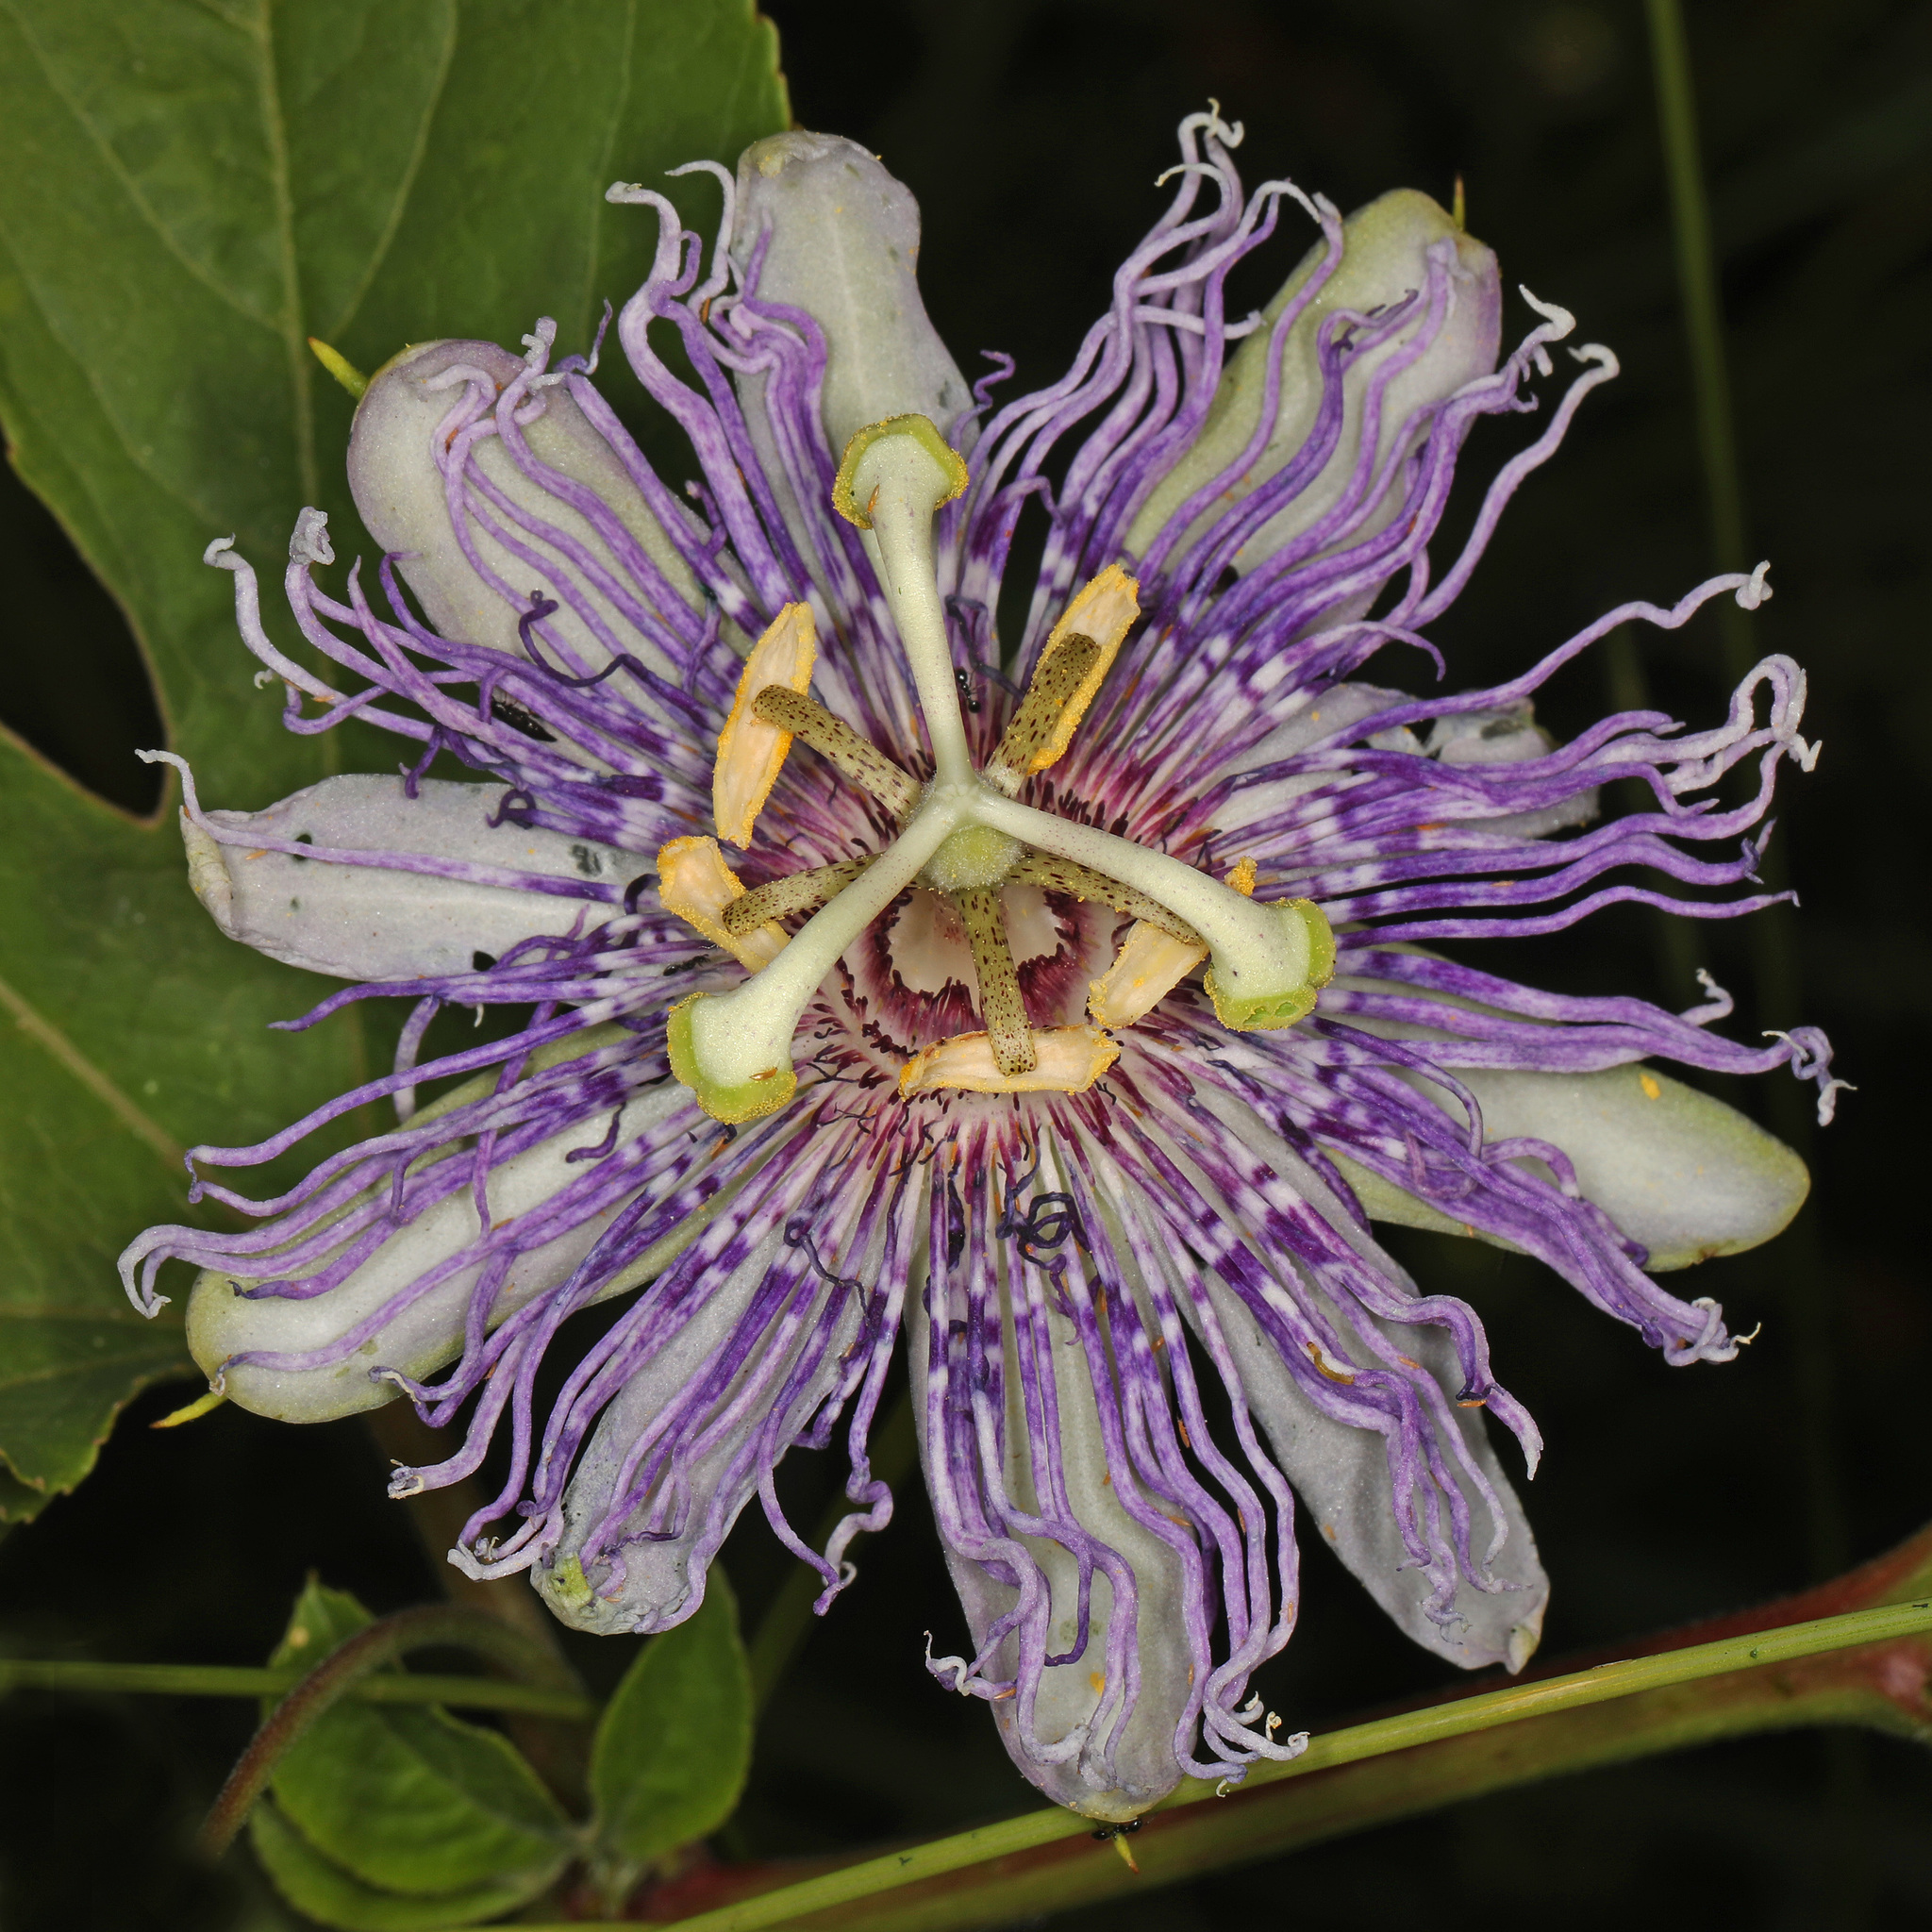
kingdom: Plantae
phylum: Tracheophyta
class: Magnoliopsida
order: Malpighiales
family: Passifloraceae
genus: Passiflora
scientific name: Passiflora incarnata
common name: Apricot-vine
